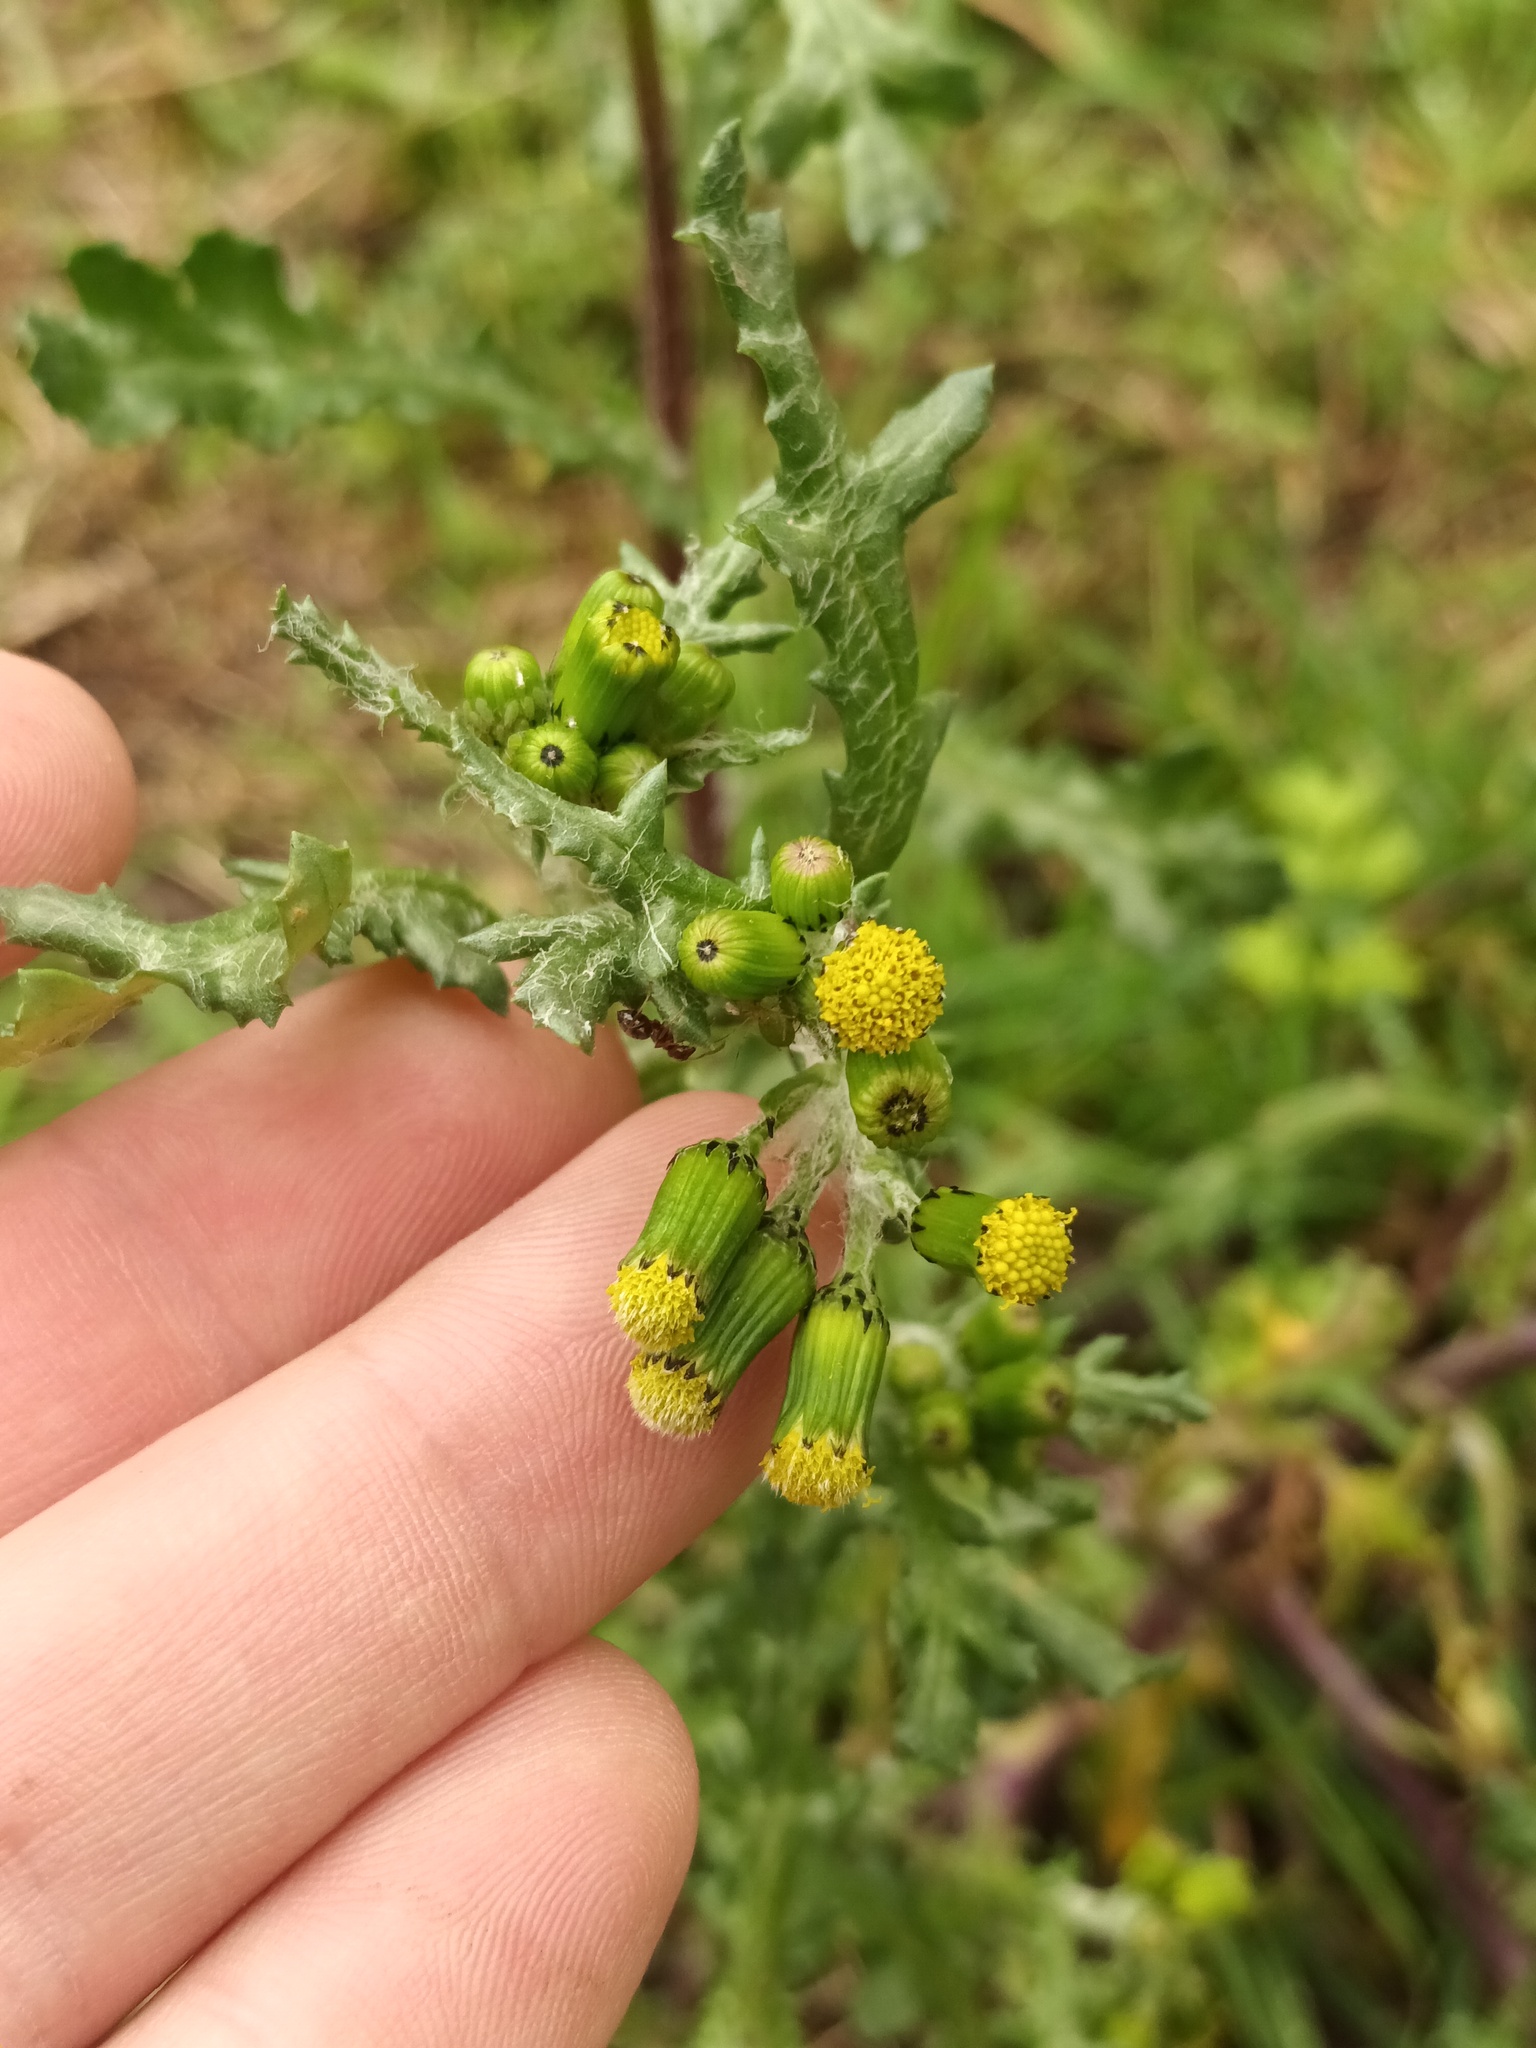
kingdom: Plantae
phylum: Tracheophyta
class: Magnoliopsida
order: Asterales
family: Asteraceae
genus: Senecio
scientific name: Senecio vulgaris
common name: Old-man-in-the-spring
